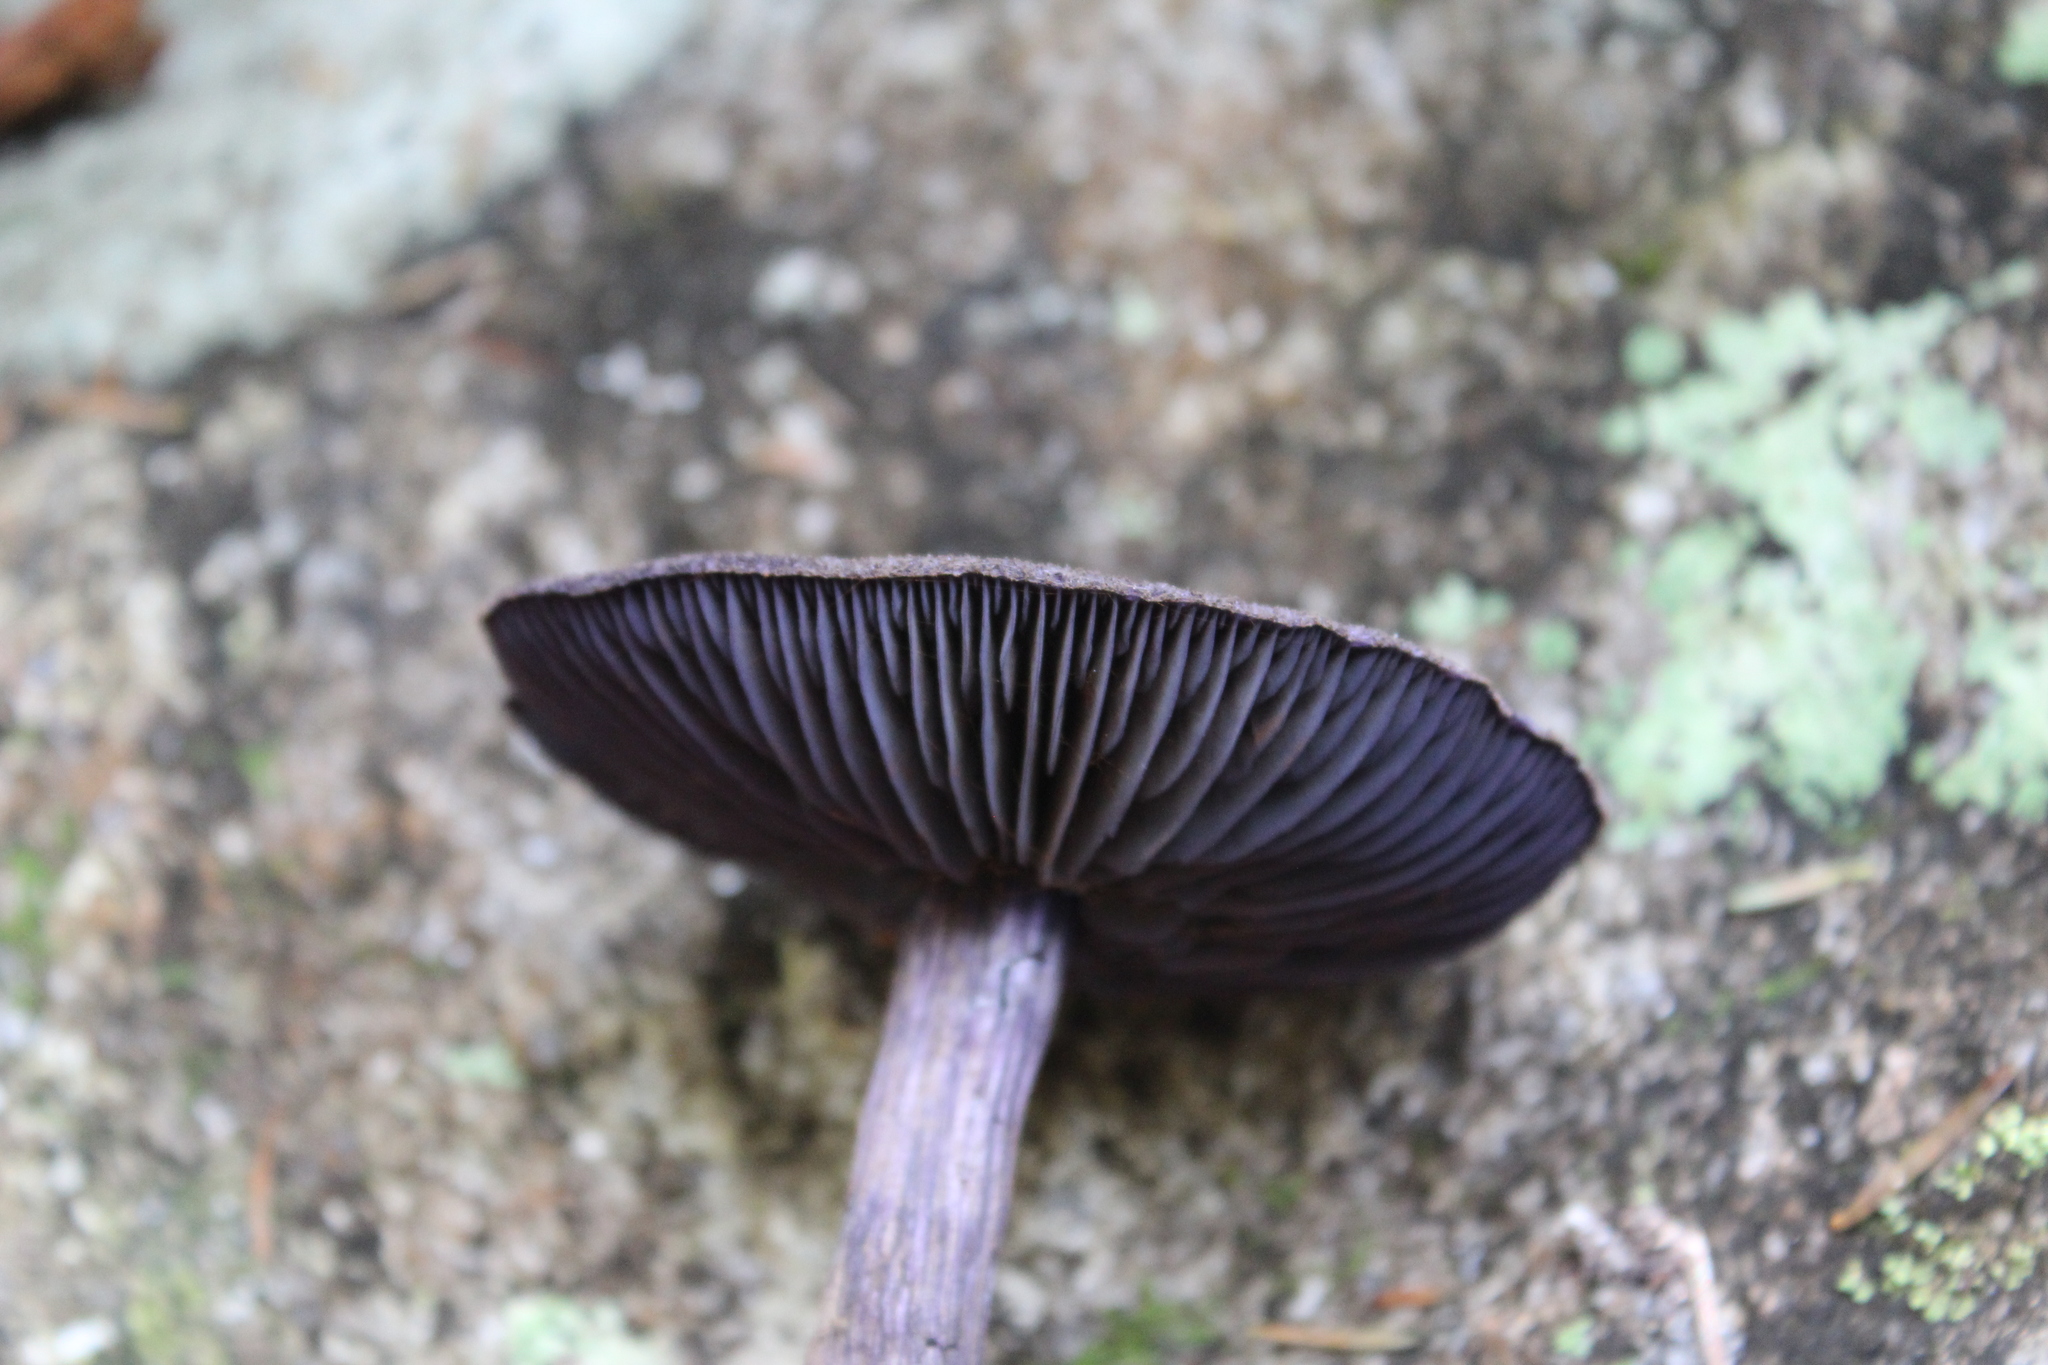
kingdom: Fungi
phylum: Basidiomycota
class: Agaricomycetes
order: Agaricales
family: Cortinariaceae
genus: Cortinarius
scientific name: Cortinarius violaceus
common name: Violet webcap
